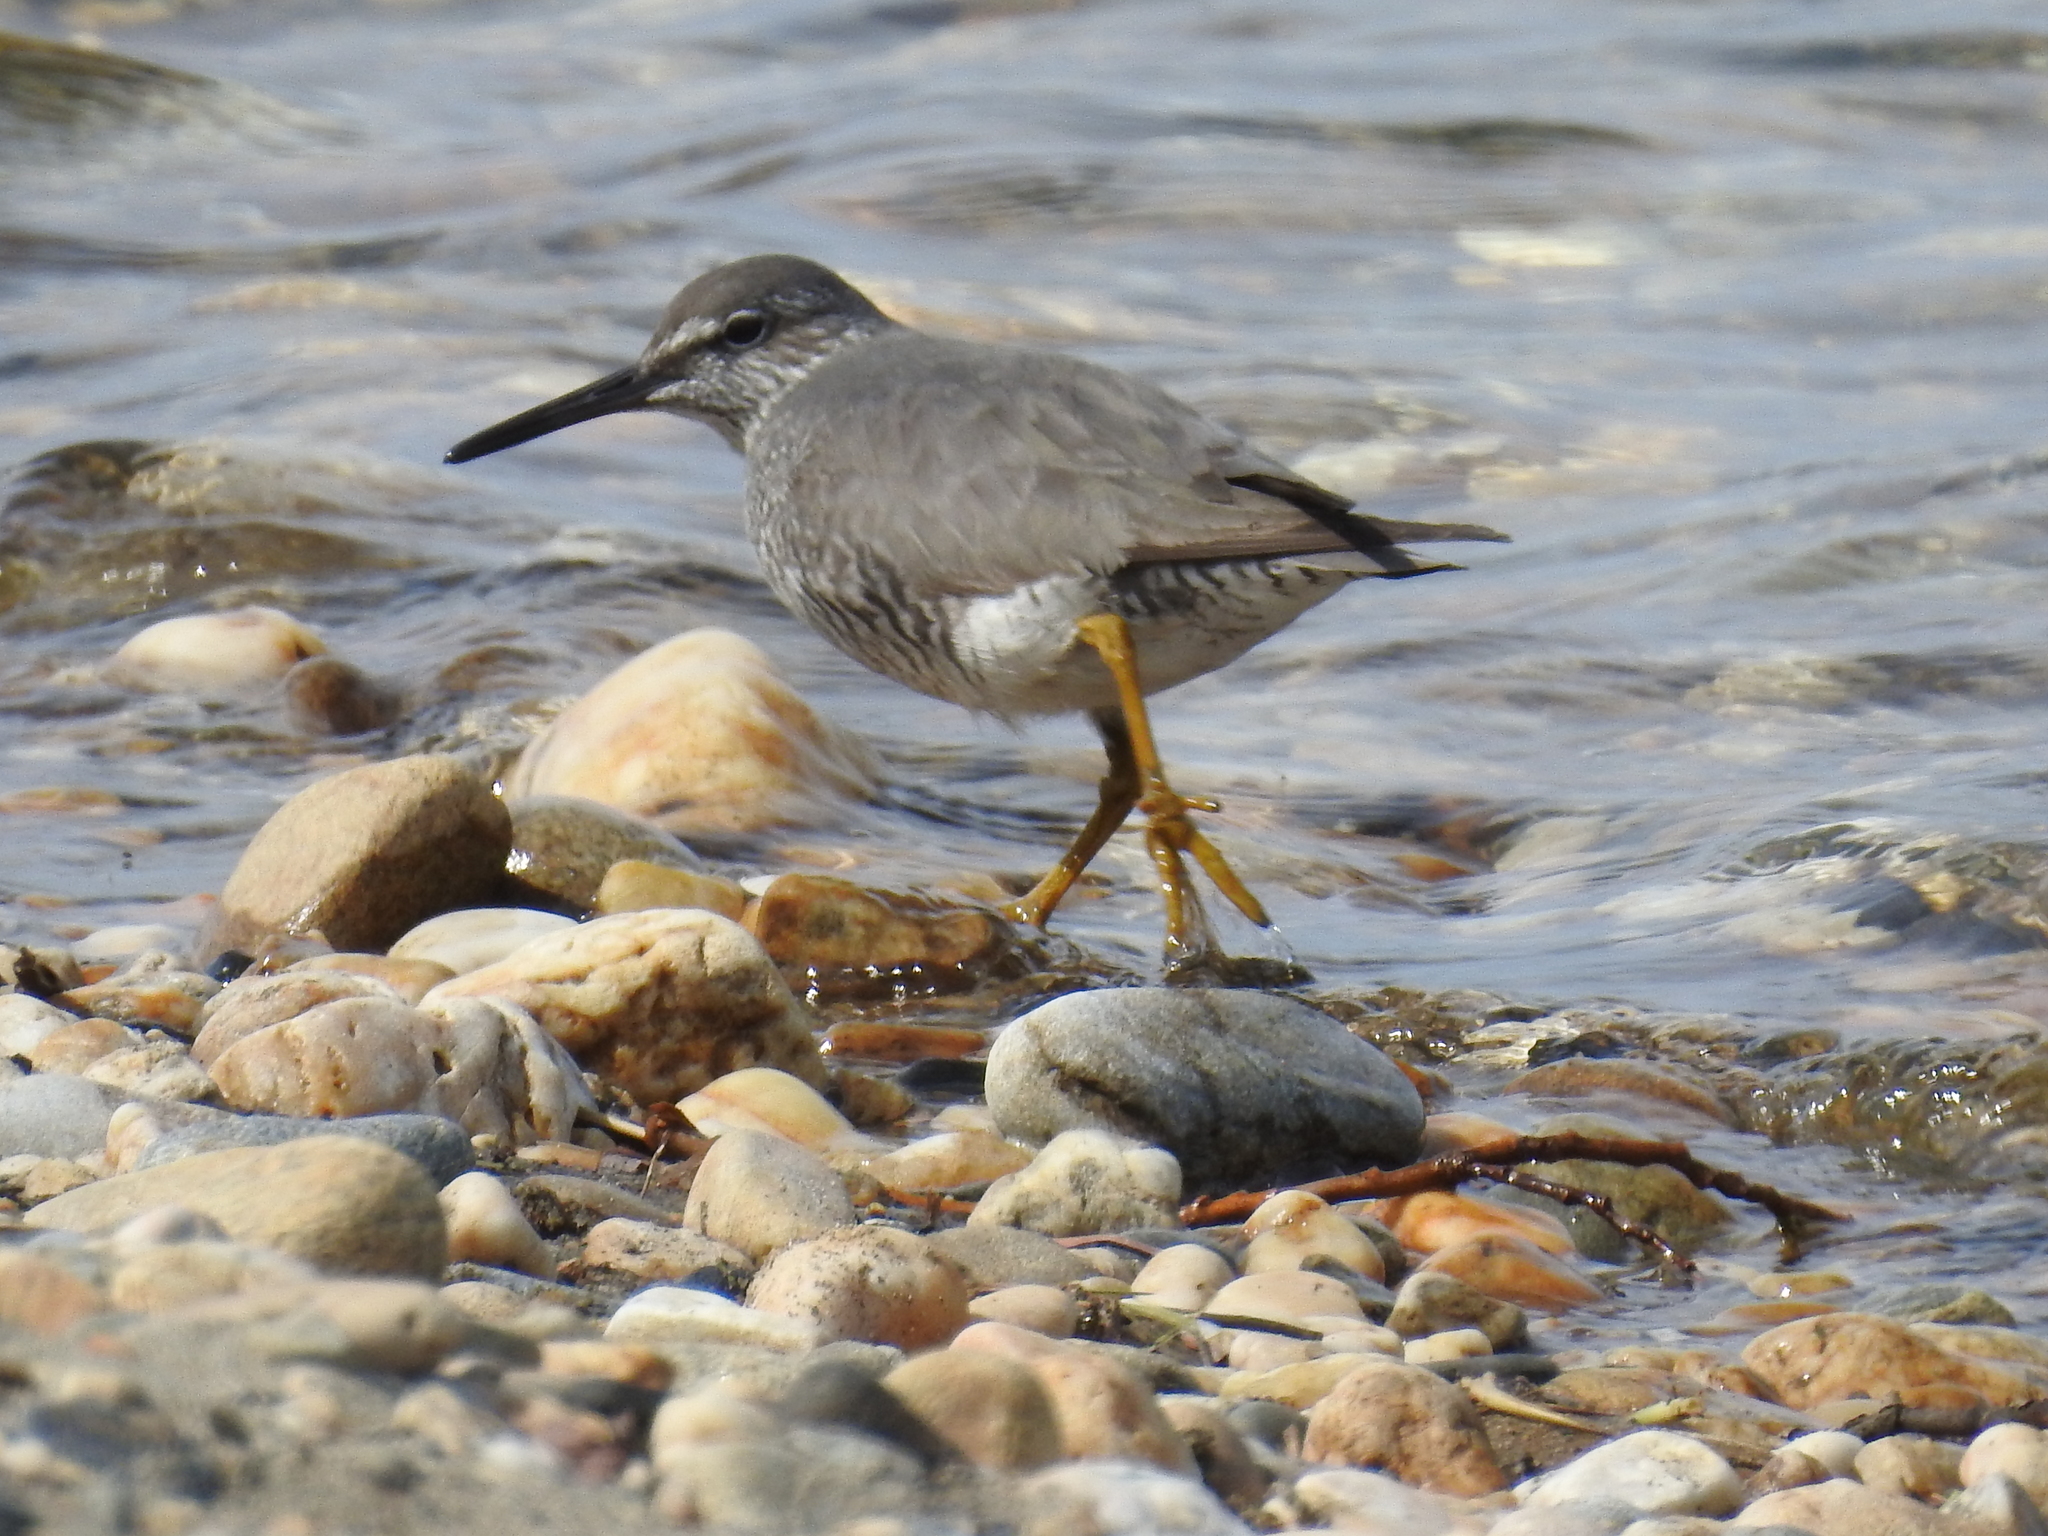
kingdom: Animalia
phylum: Chordata
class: Aves
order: Charadriiformes
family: Scolopacidae
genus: Tringa
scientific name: Tringa incana
